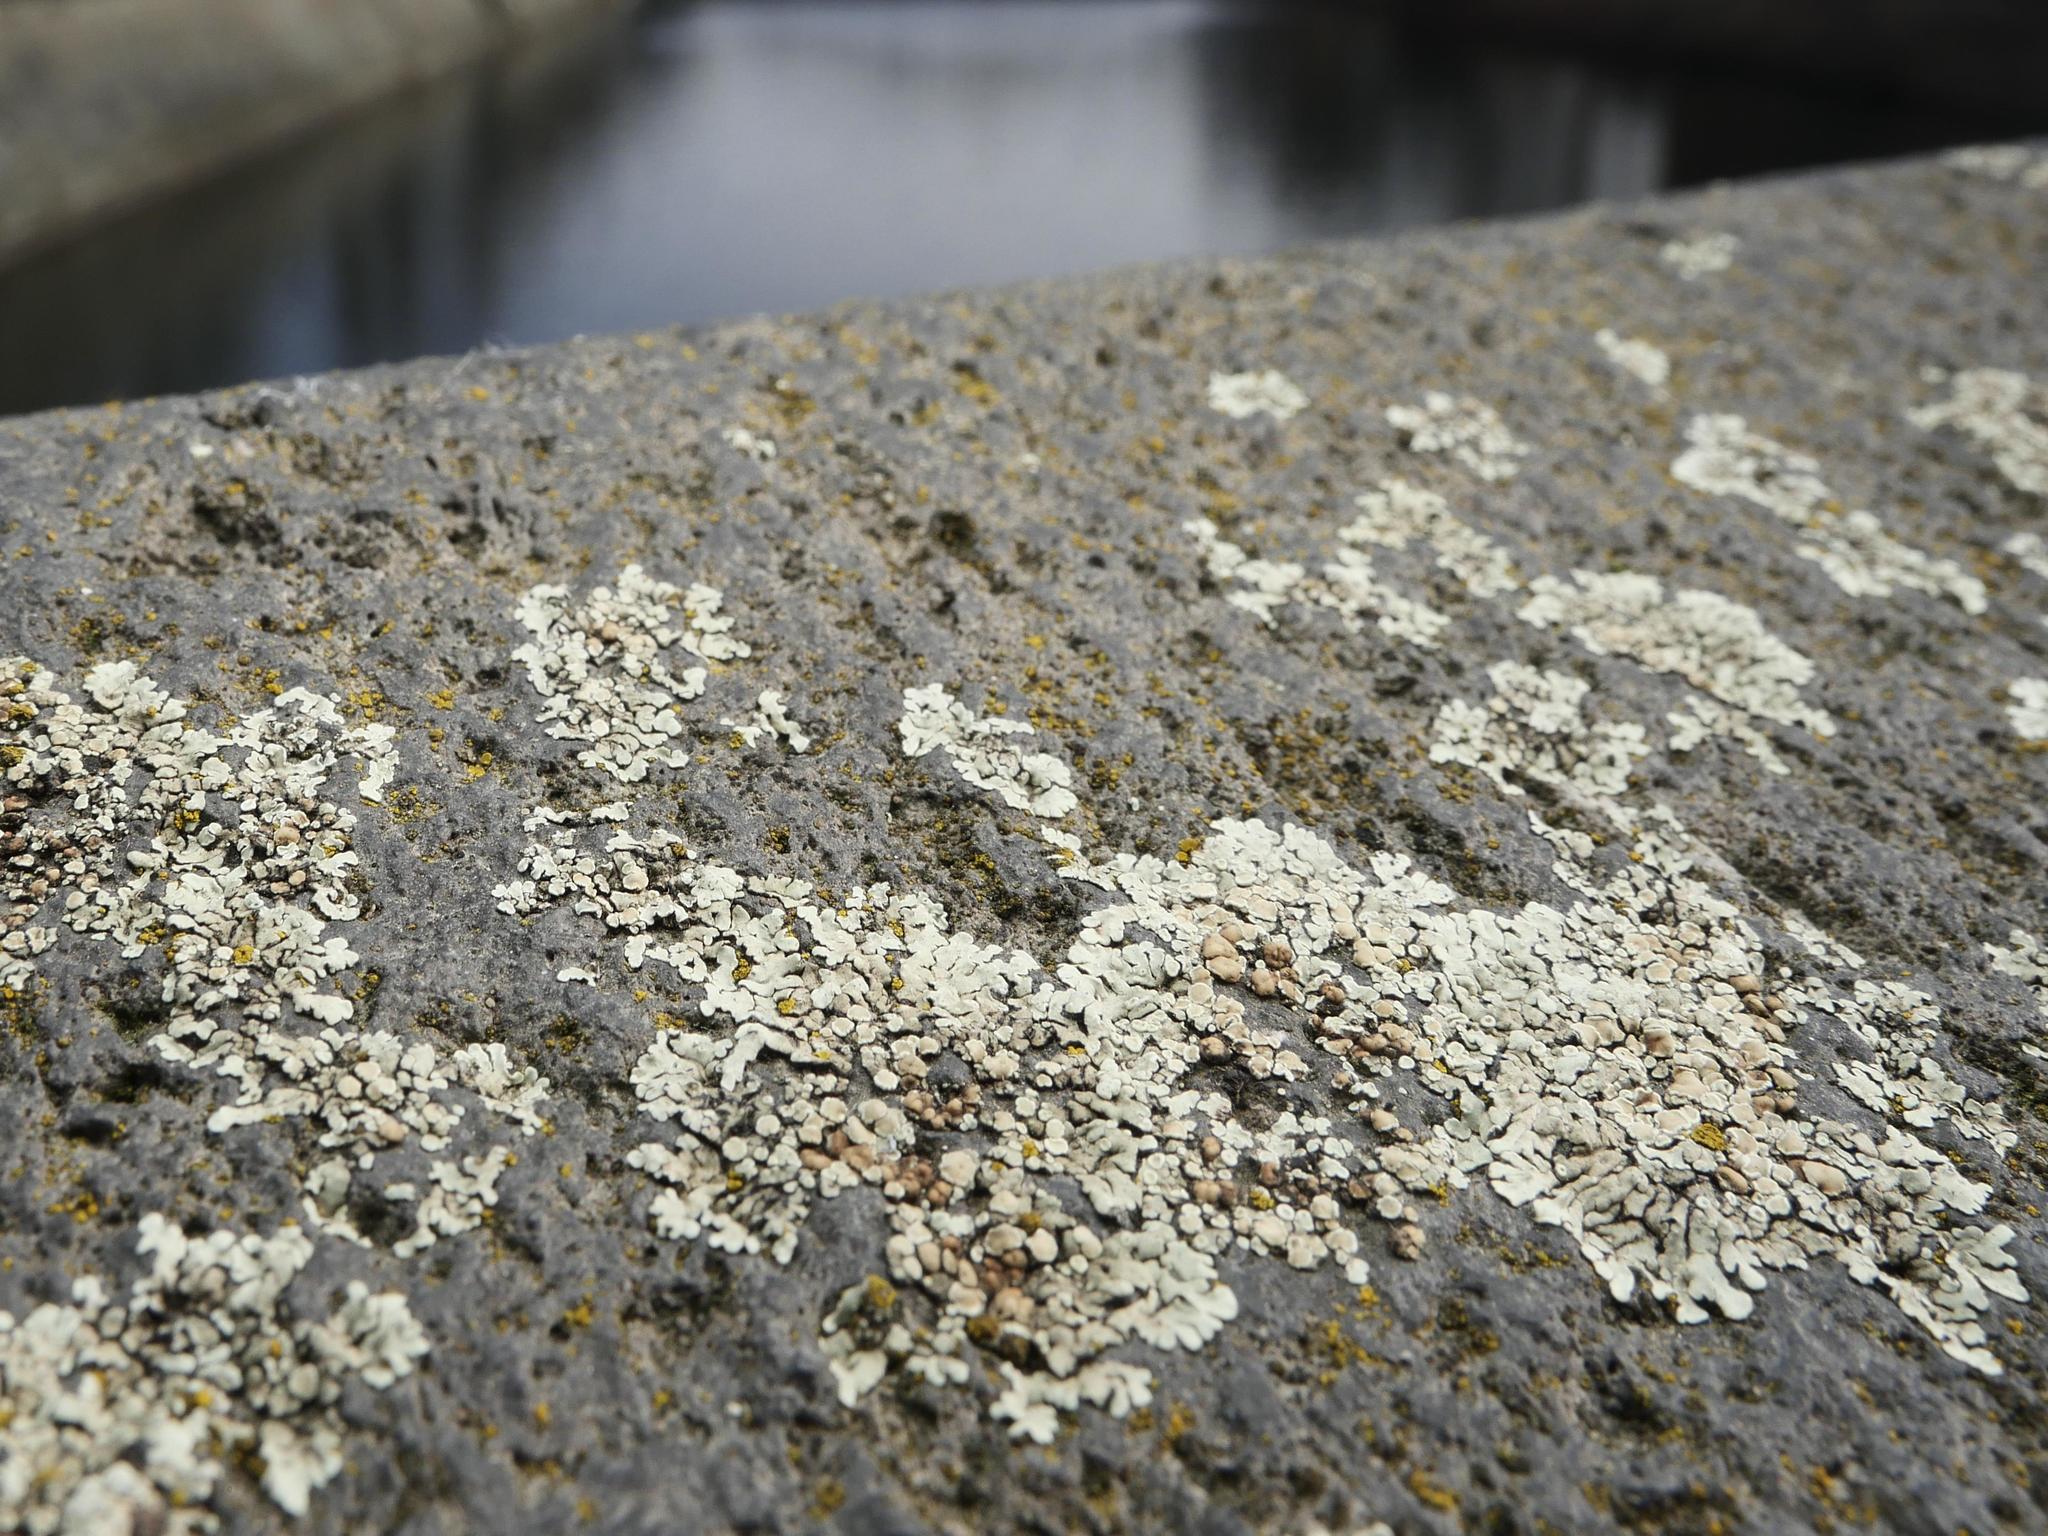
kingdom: Fungi
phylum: Ascomycota
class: Lecanoromycetes
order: Lecanorales
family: Lecanoraceae
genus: Protoparmeliopsis
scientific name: Protoparmeliopsis muralis
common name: Stonewall rim lichen
